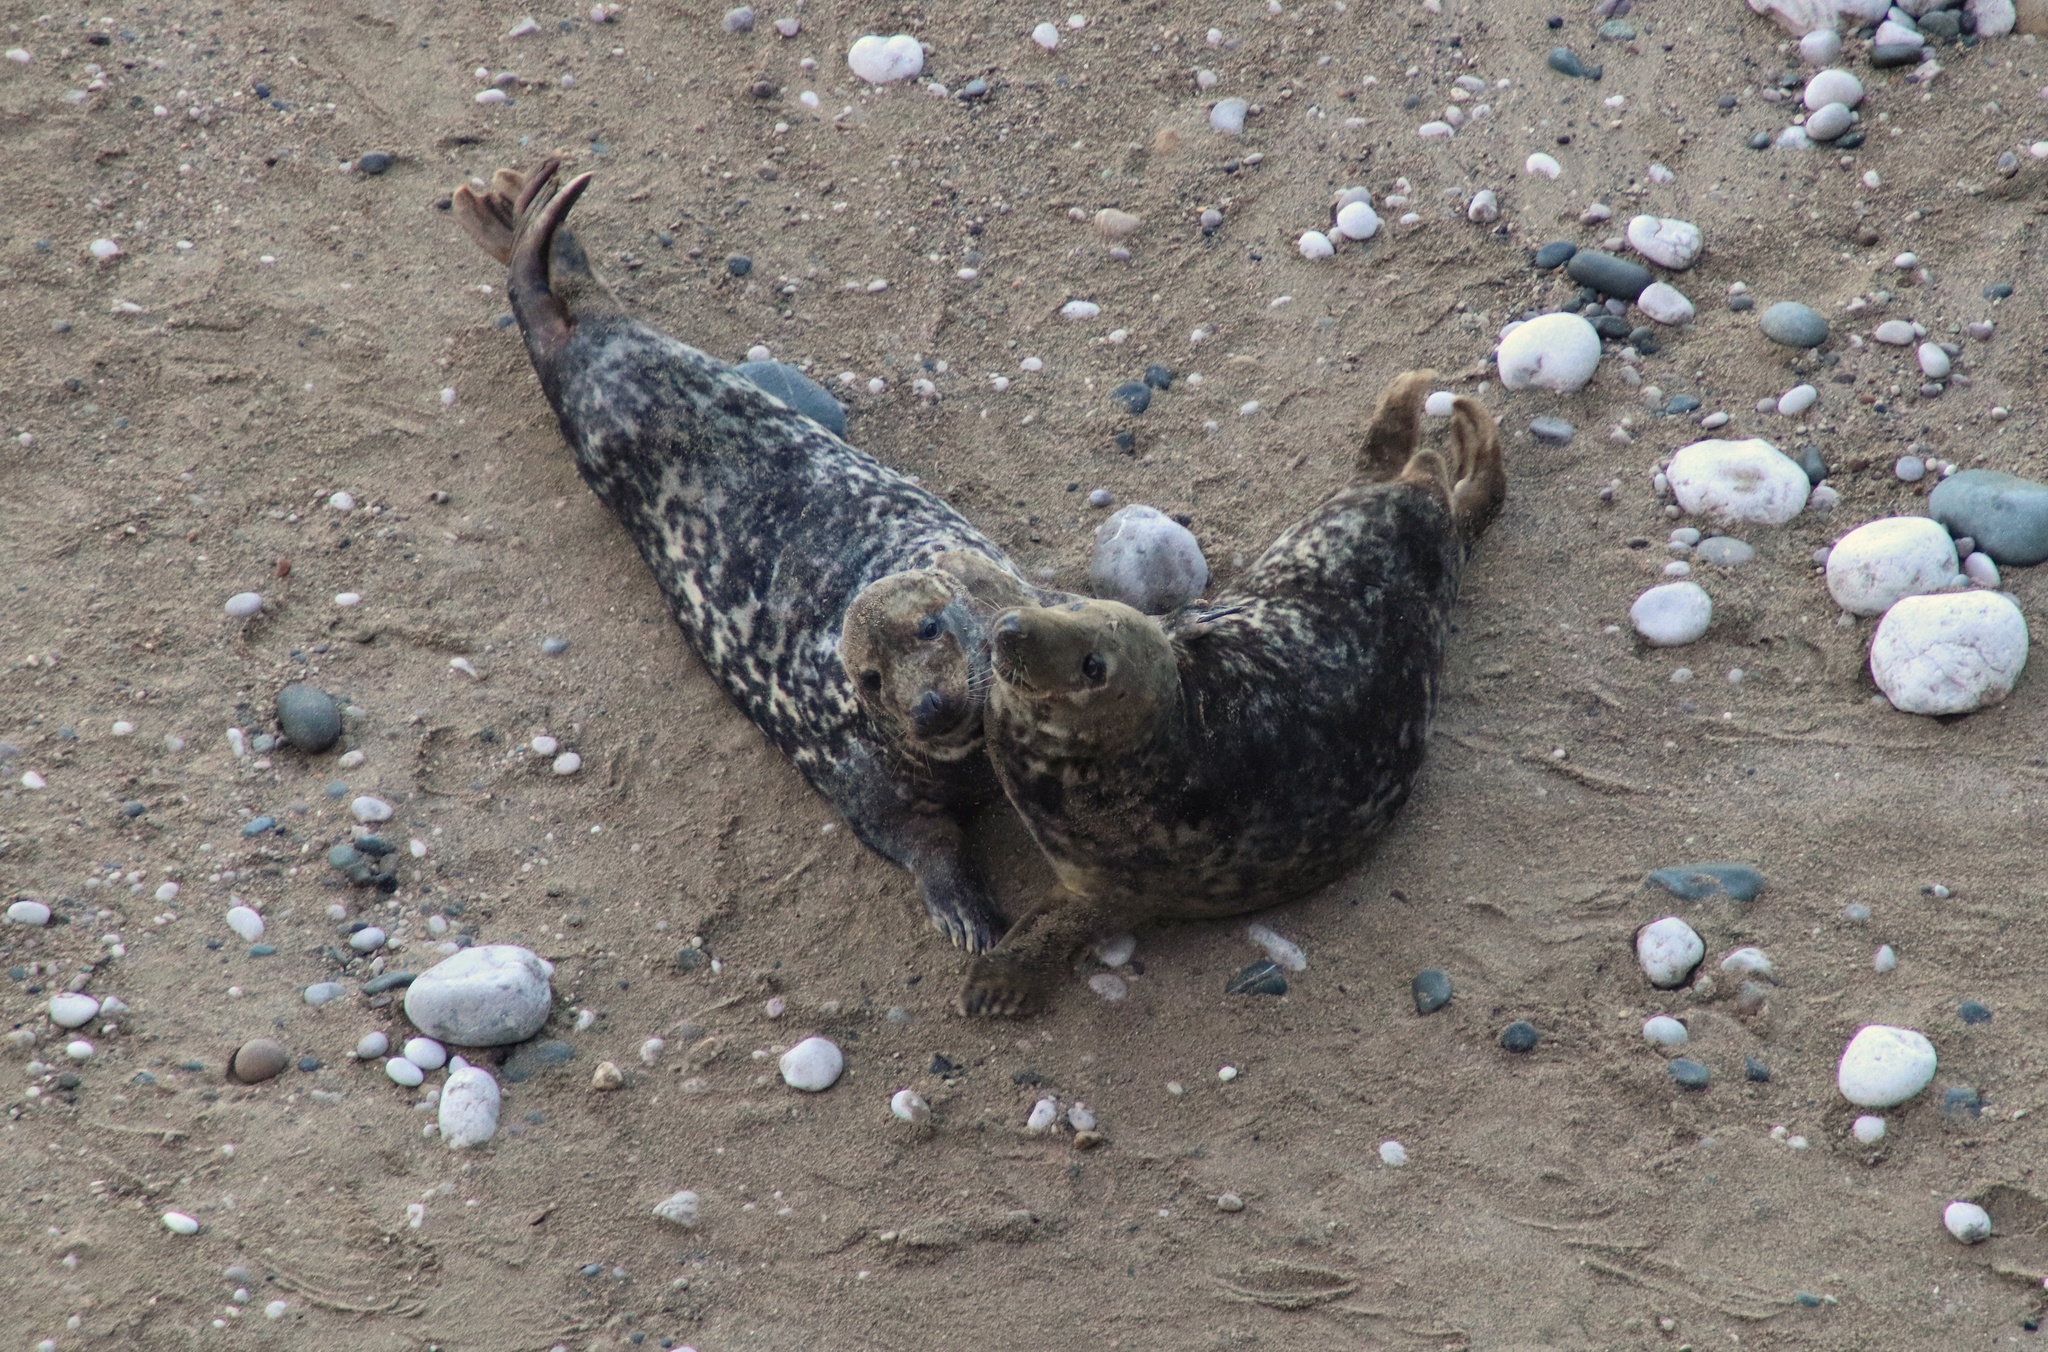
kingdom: Animalia
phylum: Chordata
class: Mammalia
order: Carnivora
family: Phocidae
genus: Halichoerus
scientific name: Halichoerus grypus
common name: Grey seal
